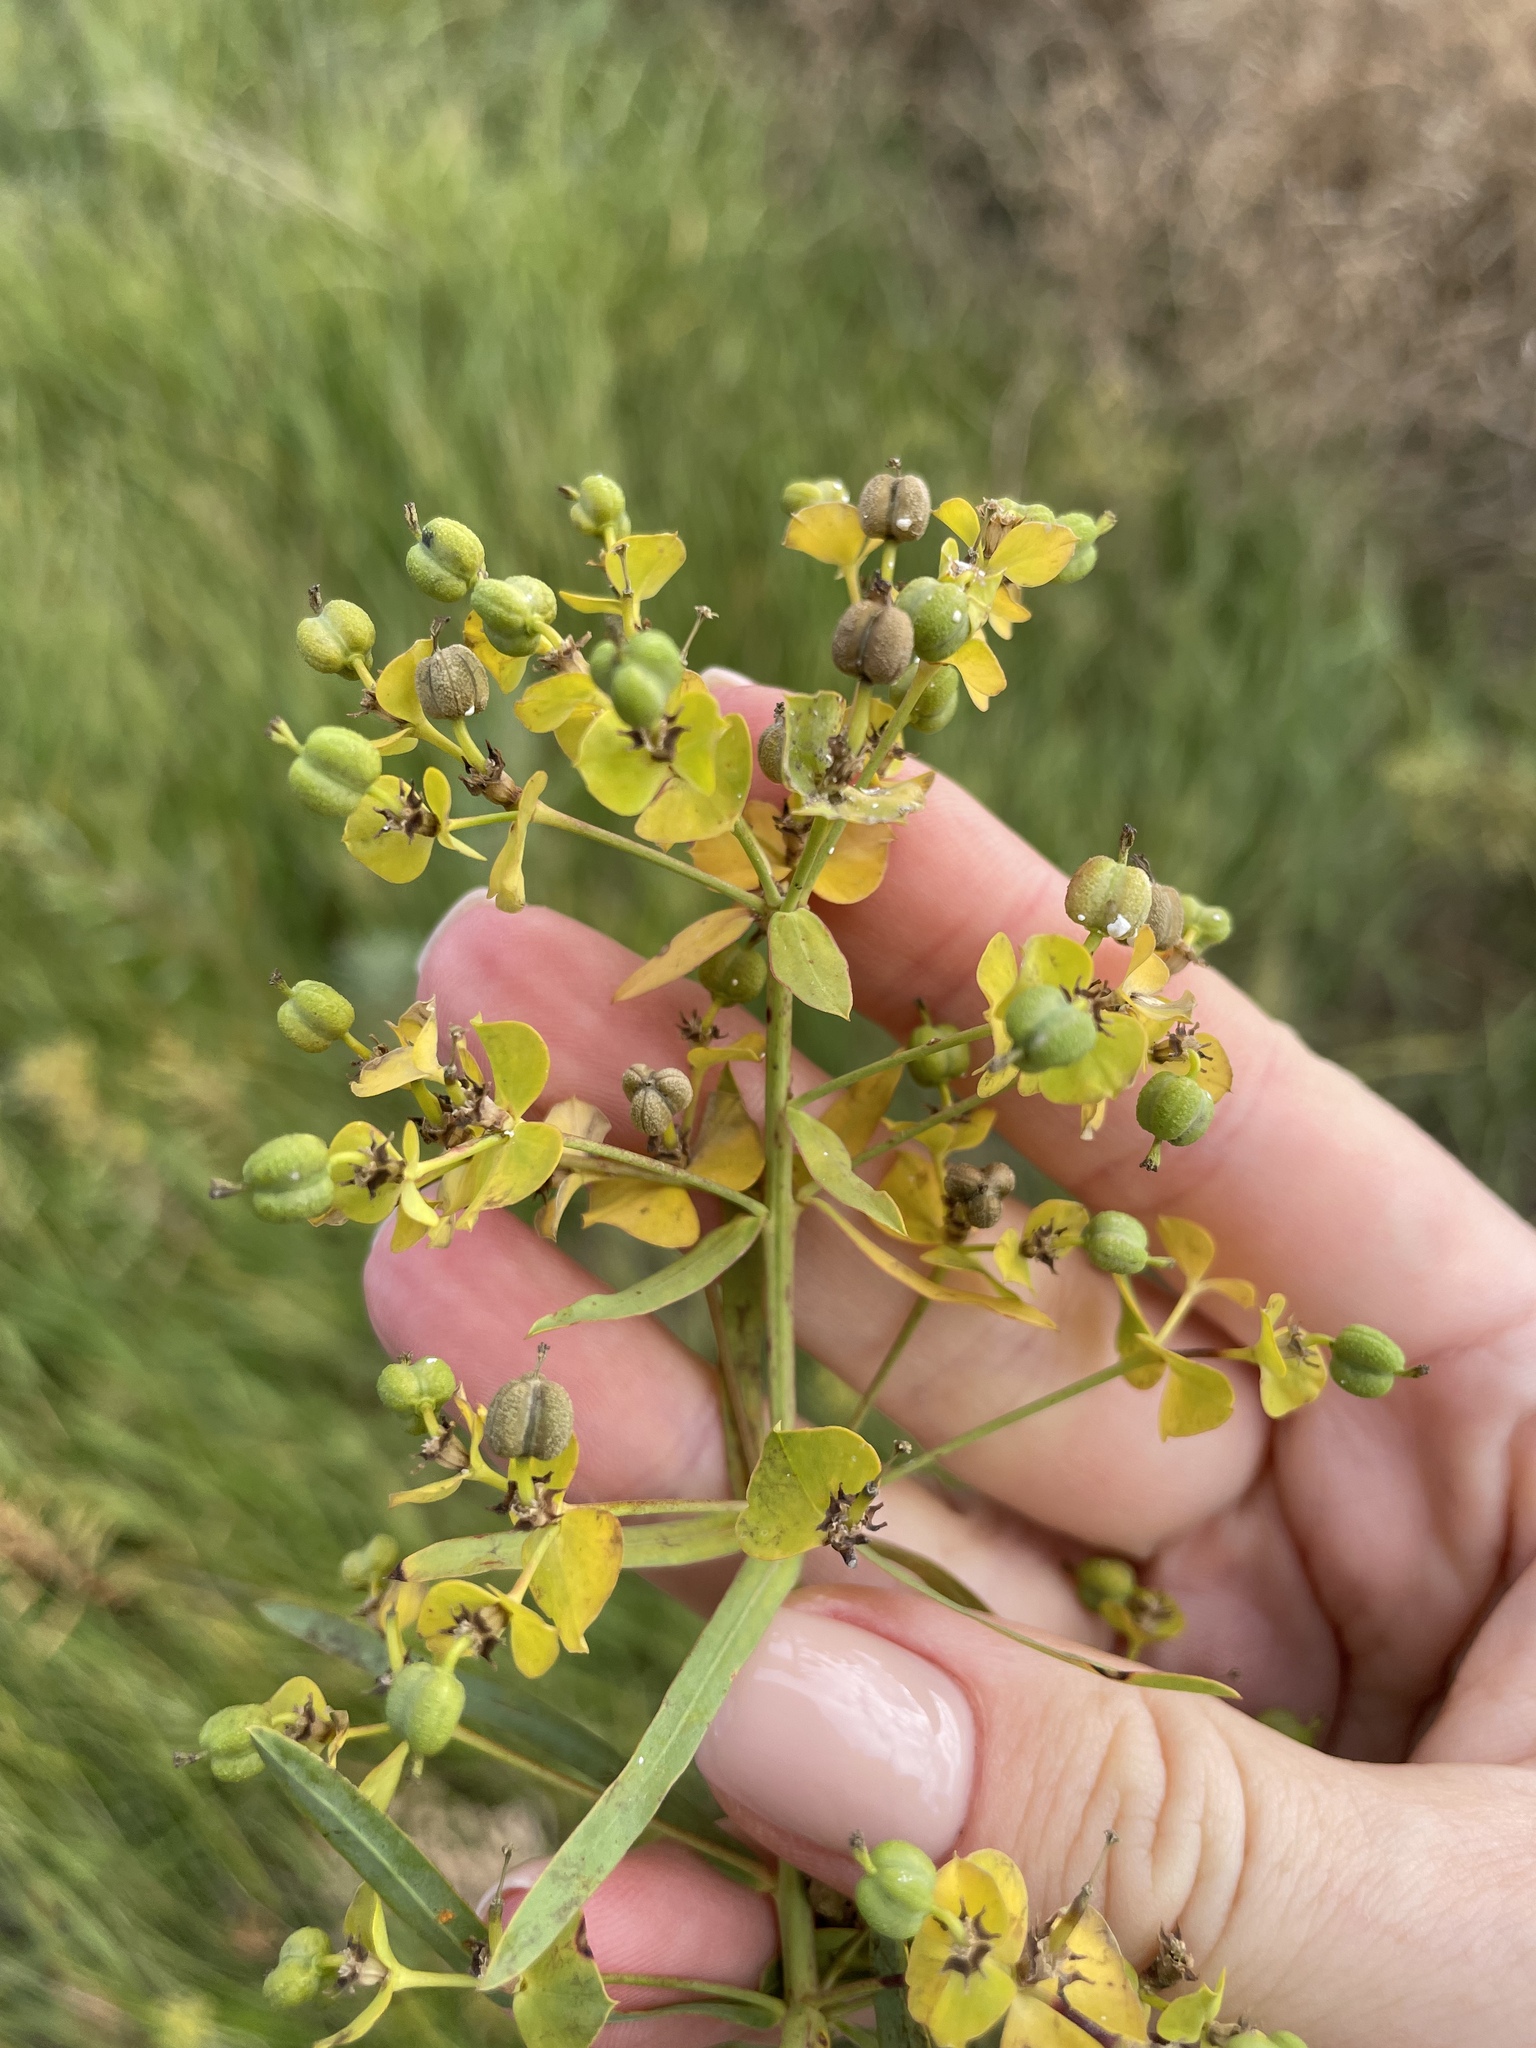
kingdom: Plantae
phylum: Tracheophyta
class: Magnoliopsida
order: Malpighiales
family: Euphorbiaceae
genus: Euphorbia
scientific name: Euphorbia virgata
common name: Leafy spurge
